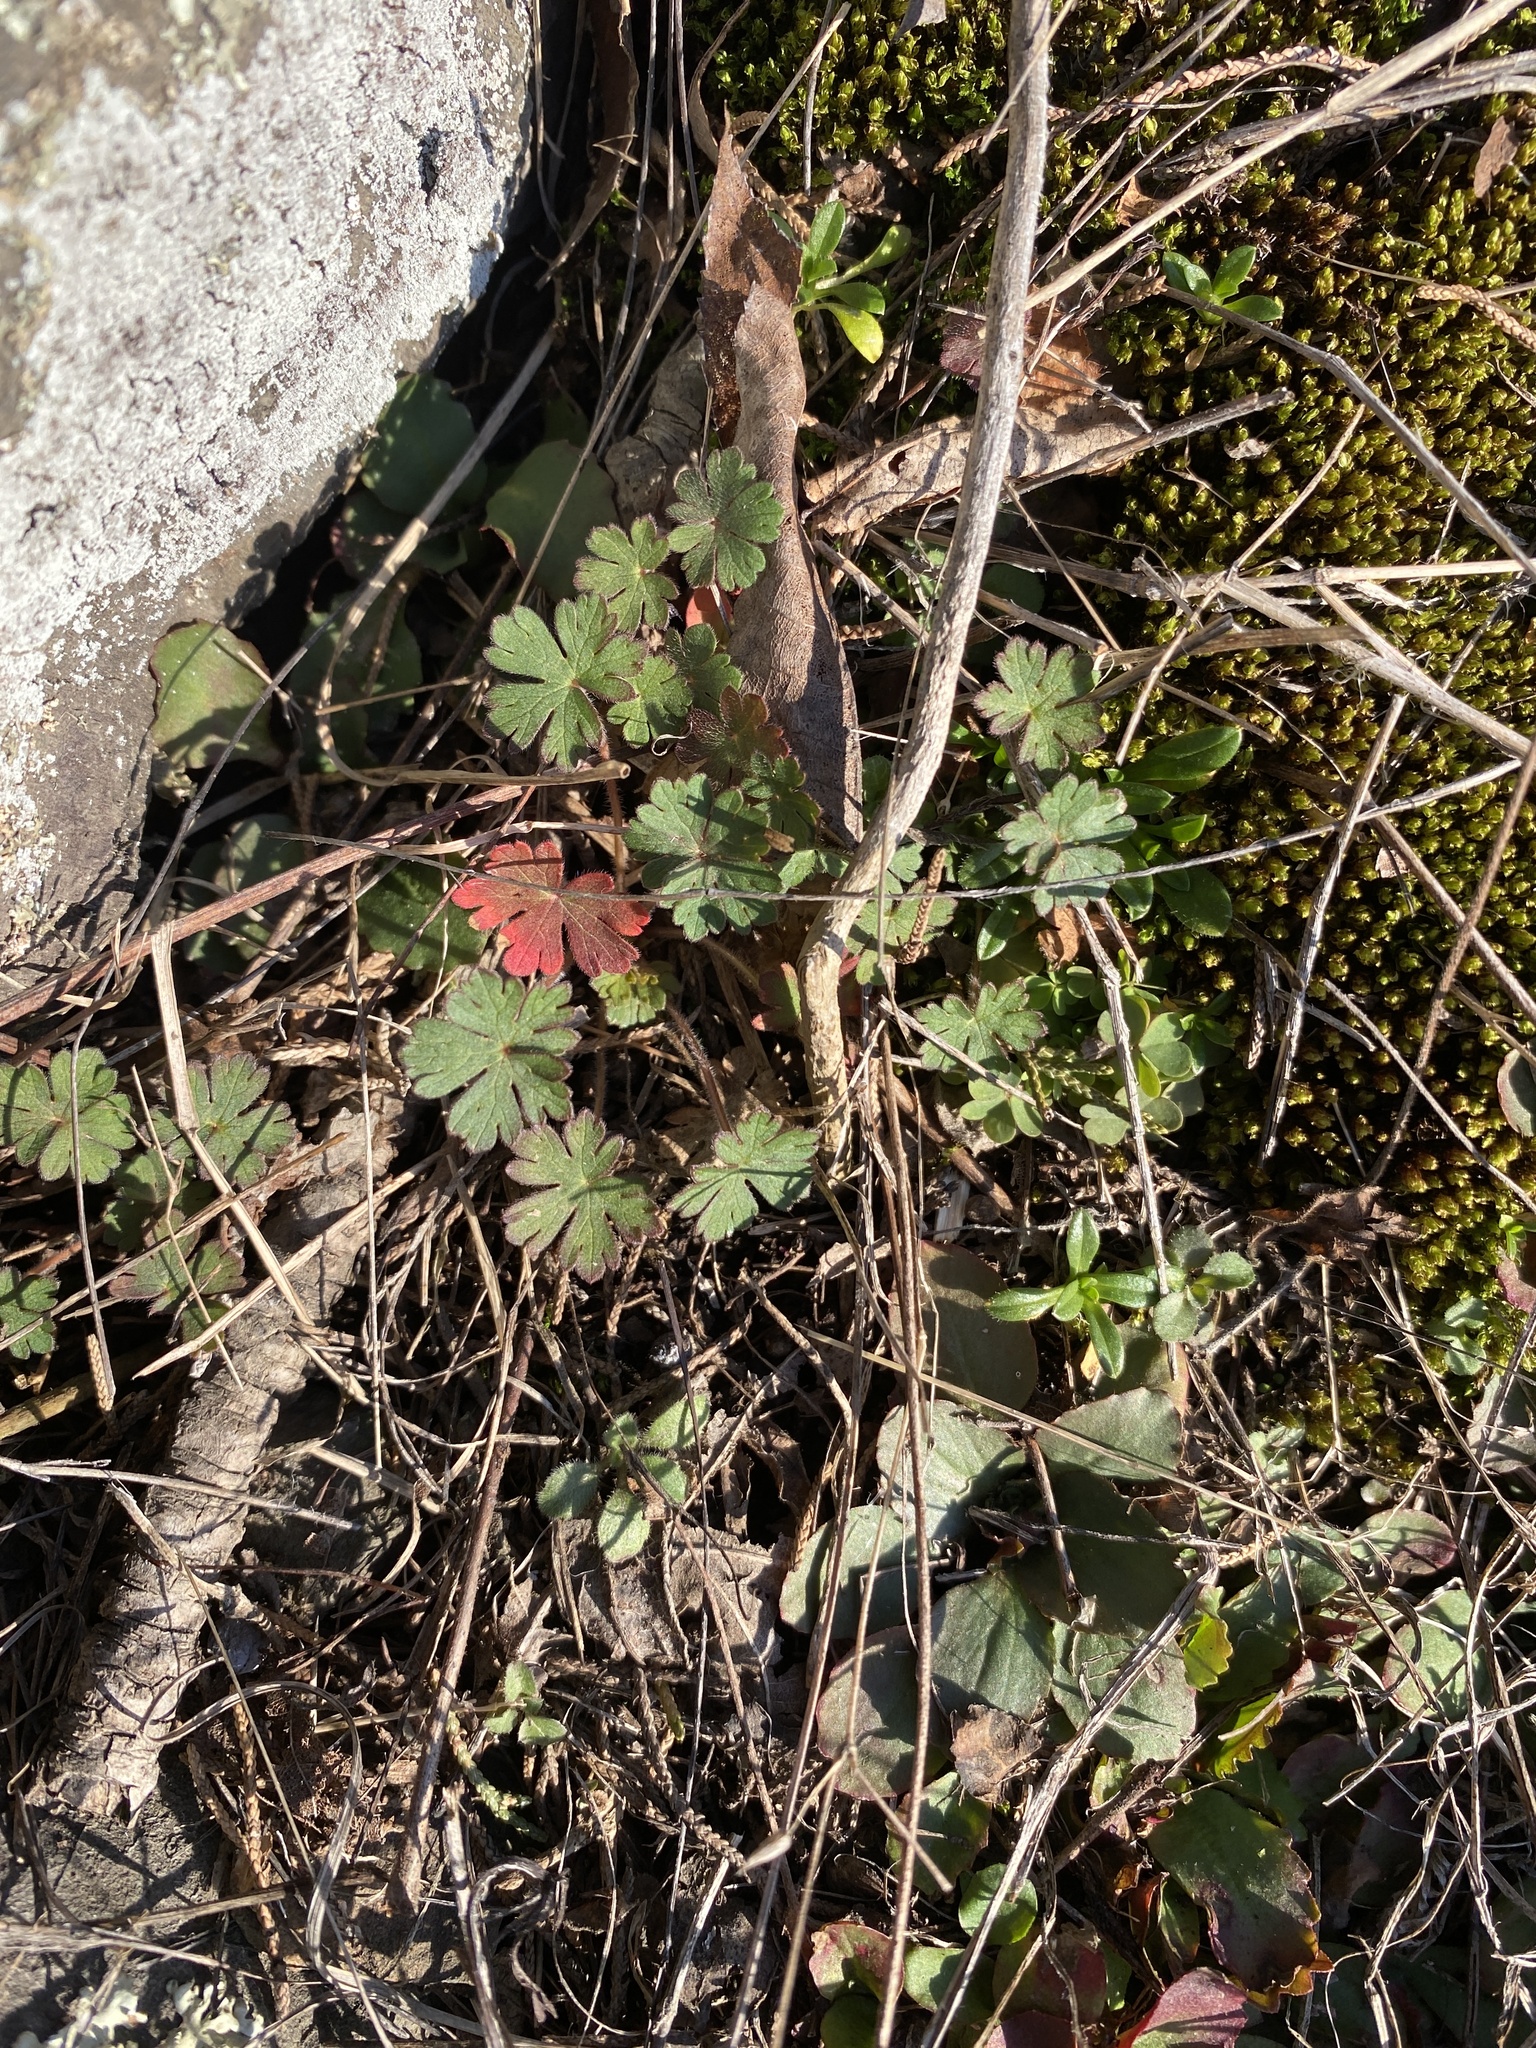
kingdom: Plantae
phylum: Tracheophyta
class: Magnoliopsida
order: Geraniales
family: Geraniaceae
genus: Geranium
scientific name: Geranium carolinianum
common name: Carolina crane's-bill
